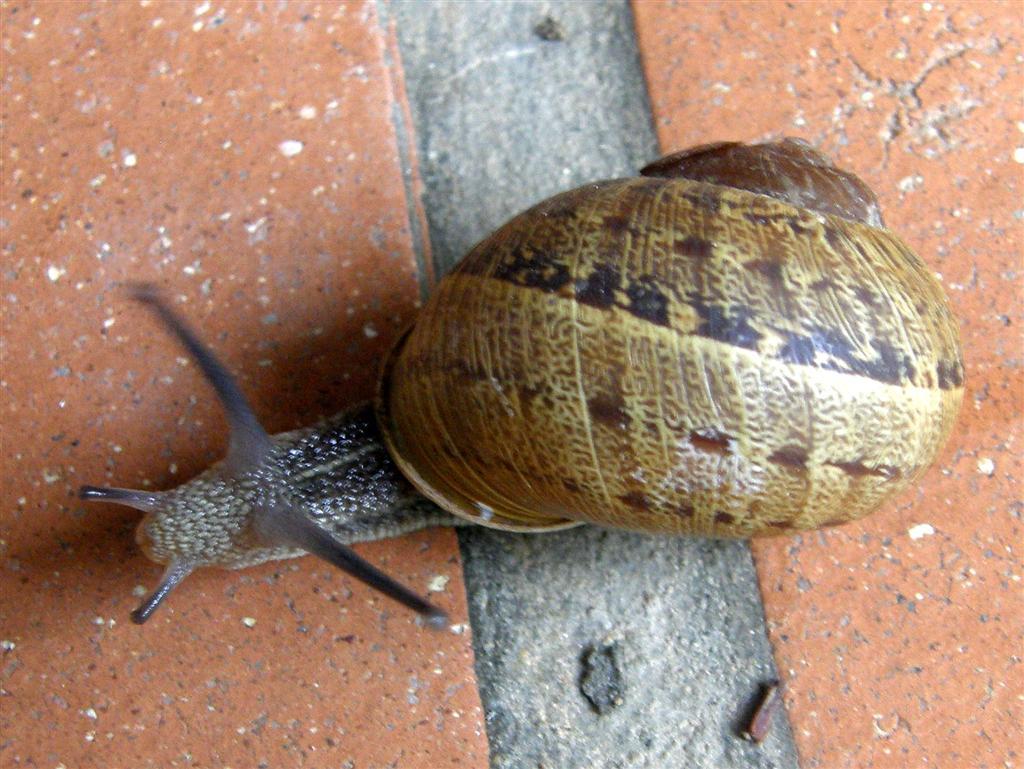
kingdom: Animalia
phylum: Mollusca
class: Gastropoda
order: Stylommatophora
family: Helicidae
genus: Cornu
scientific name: Cornu aspersum
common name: Brown garden snail
